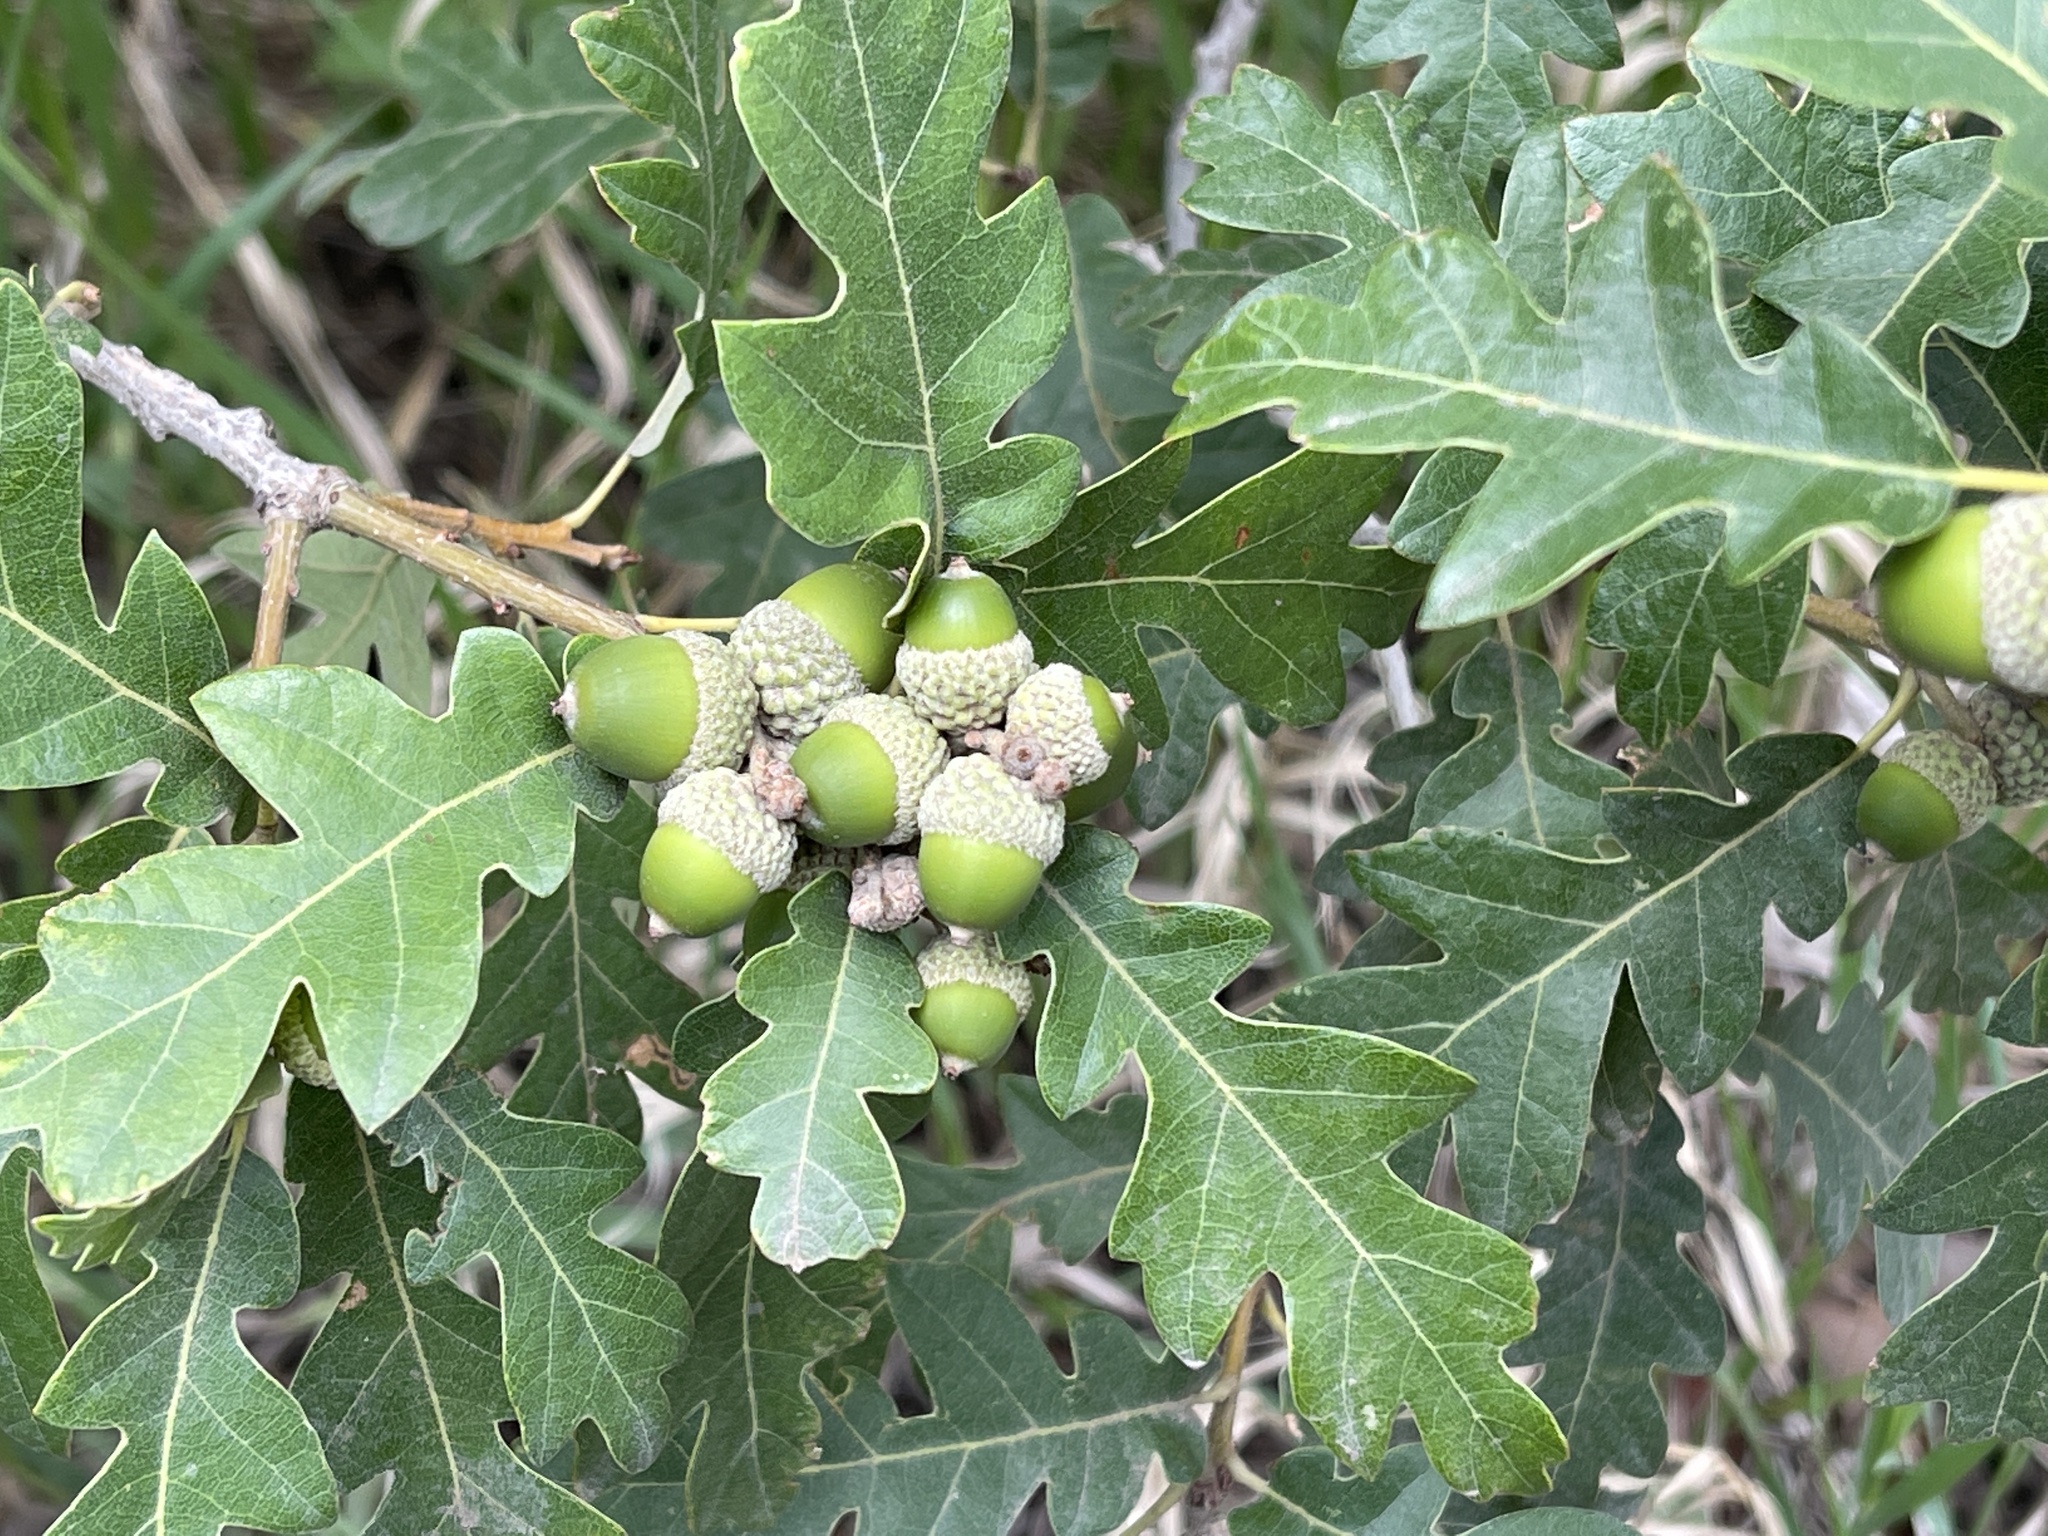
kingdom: Plantae
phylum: Tracheophyta
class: Magnoliopsida
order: Fagales
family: Fagaceae
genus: Quercus
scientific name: Quercus gambelii
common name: Gambel oak
